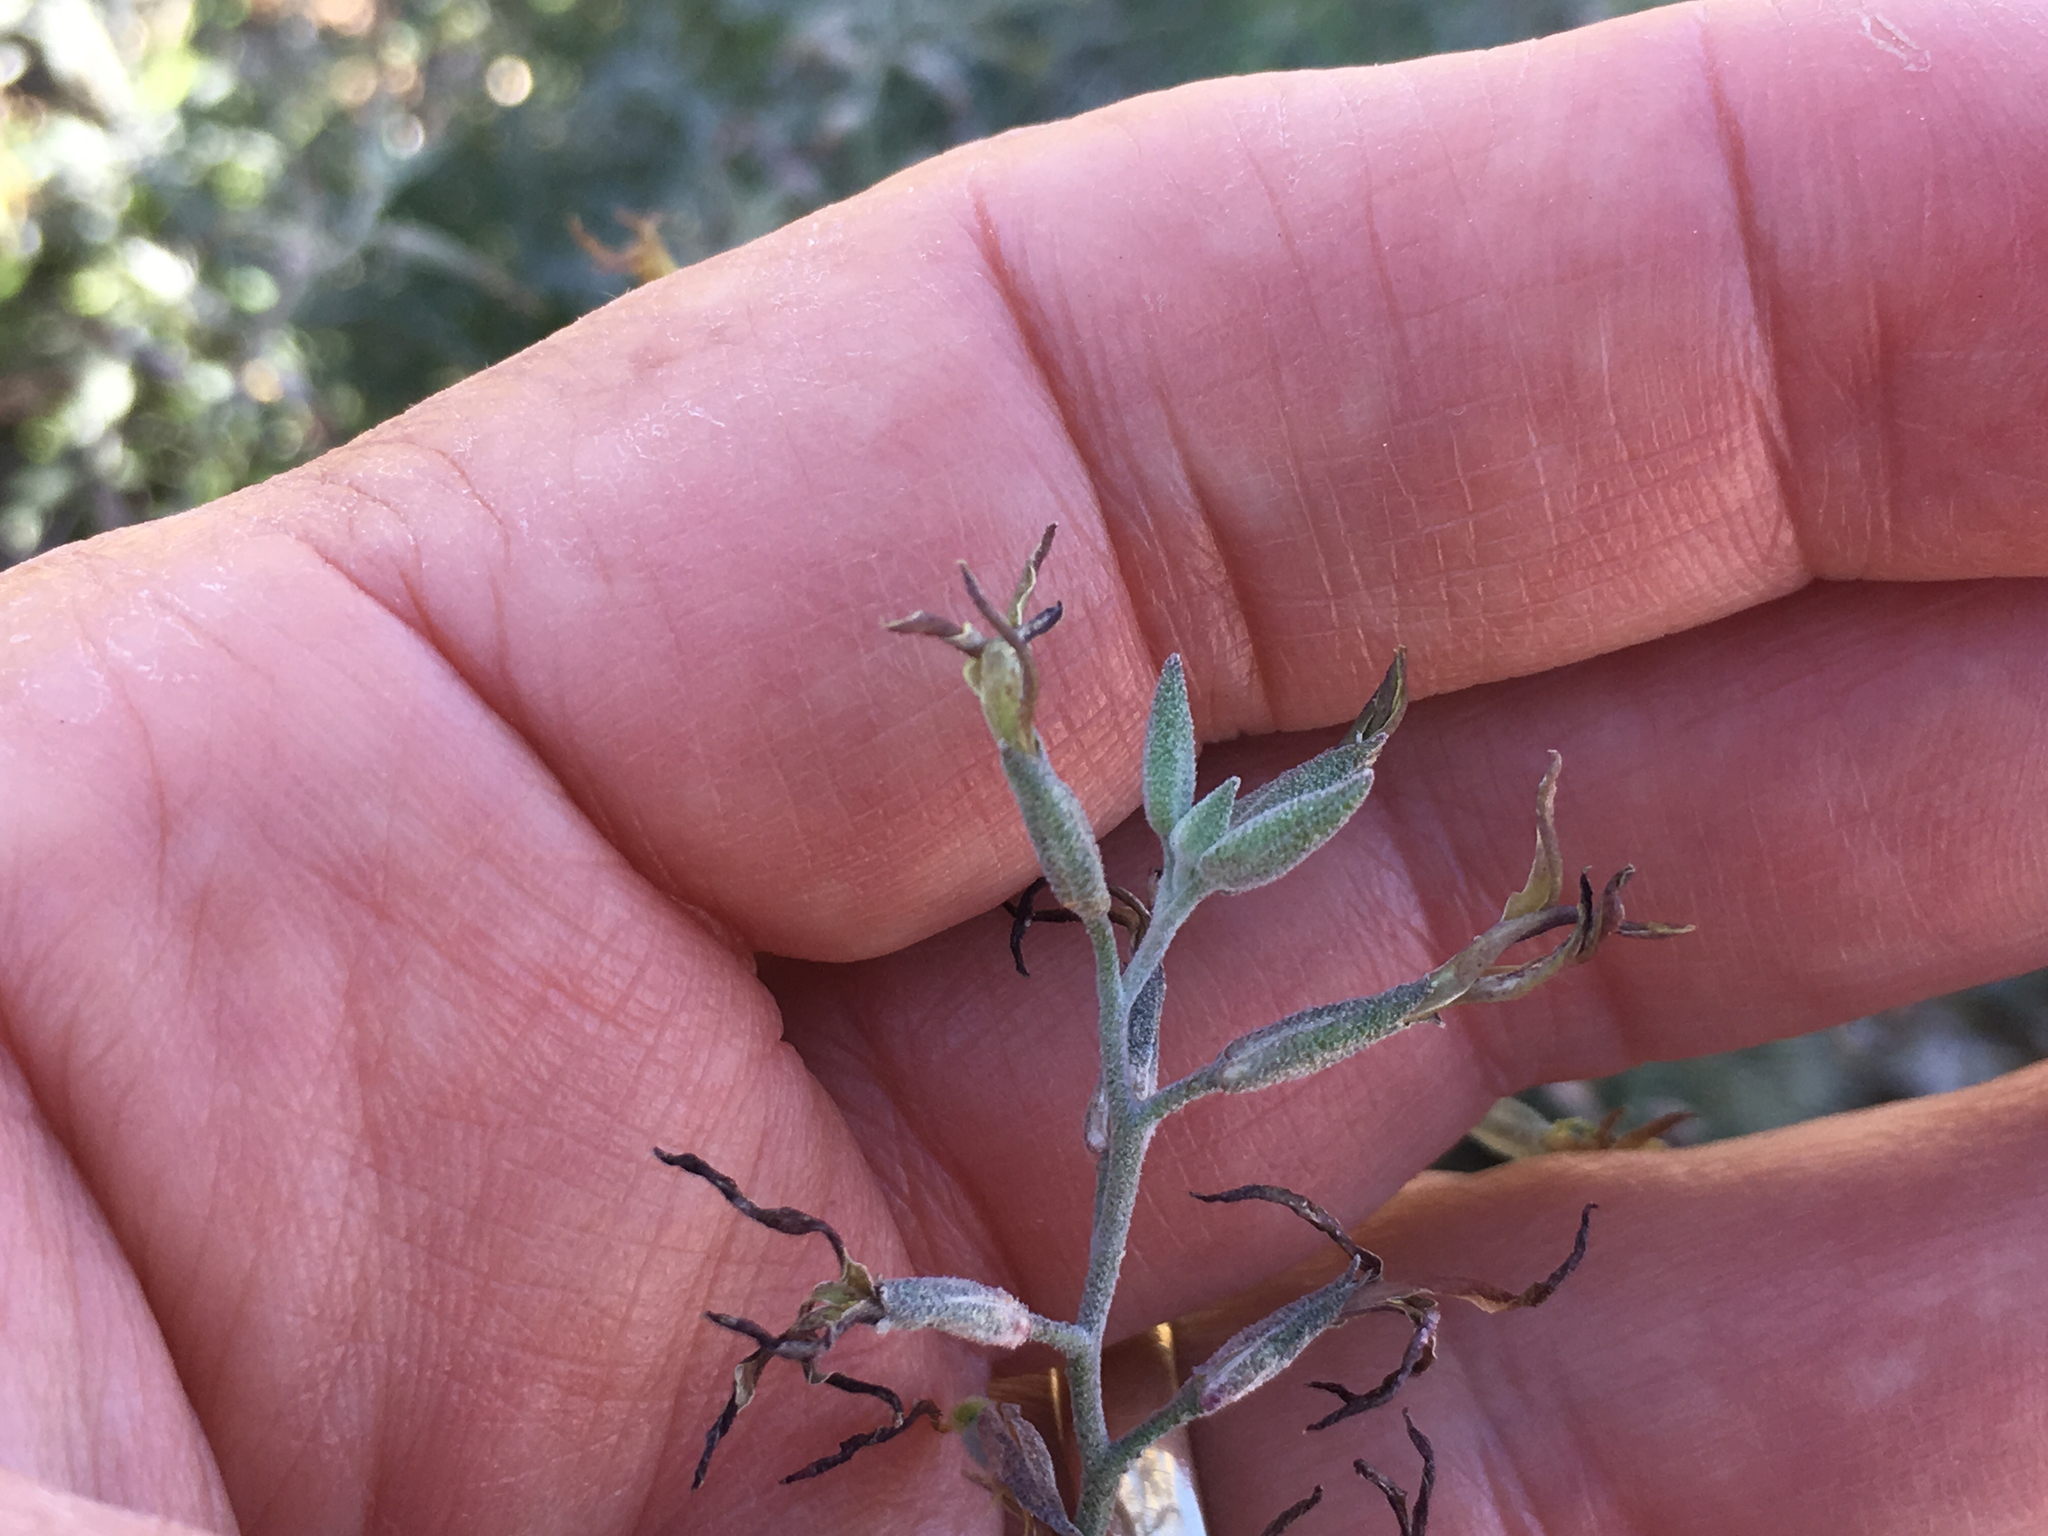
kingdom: Plantae
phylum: Tracheophyta
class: Magnoliopsida
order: Brassicales
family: Brassicaceae
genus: Lyrocarpa
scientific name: Lyrocarpa coulteri
